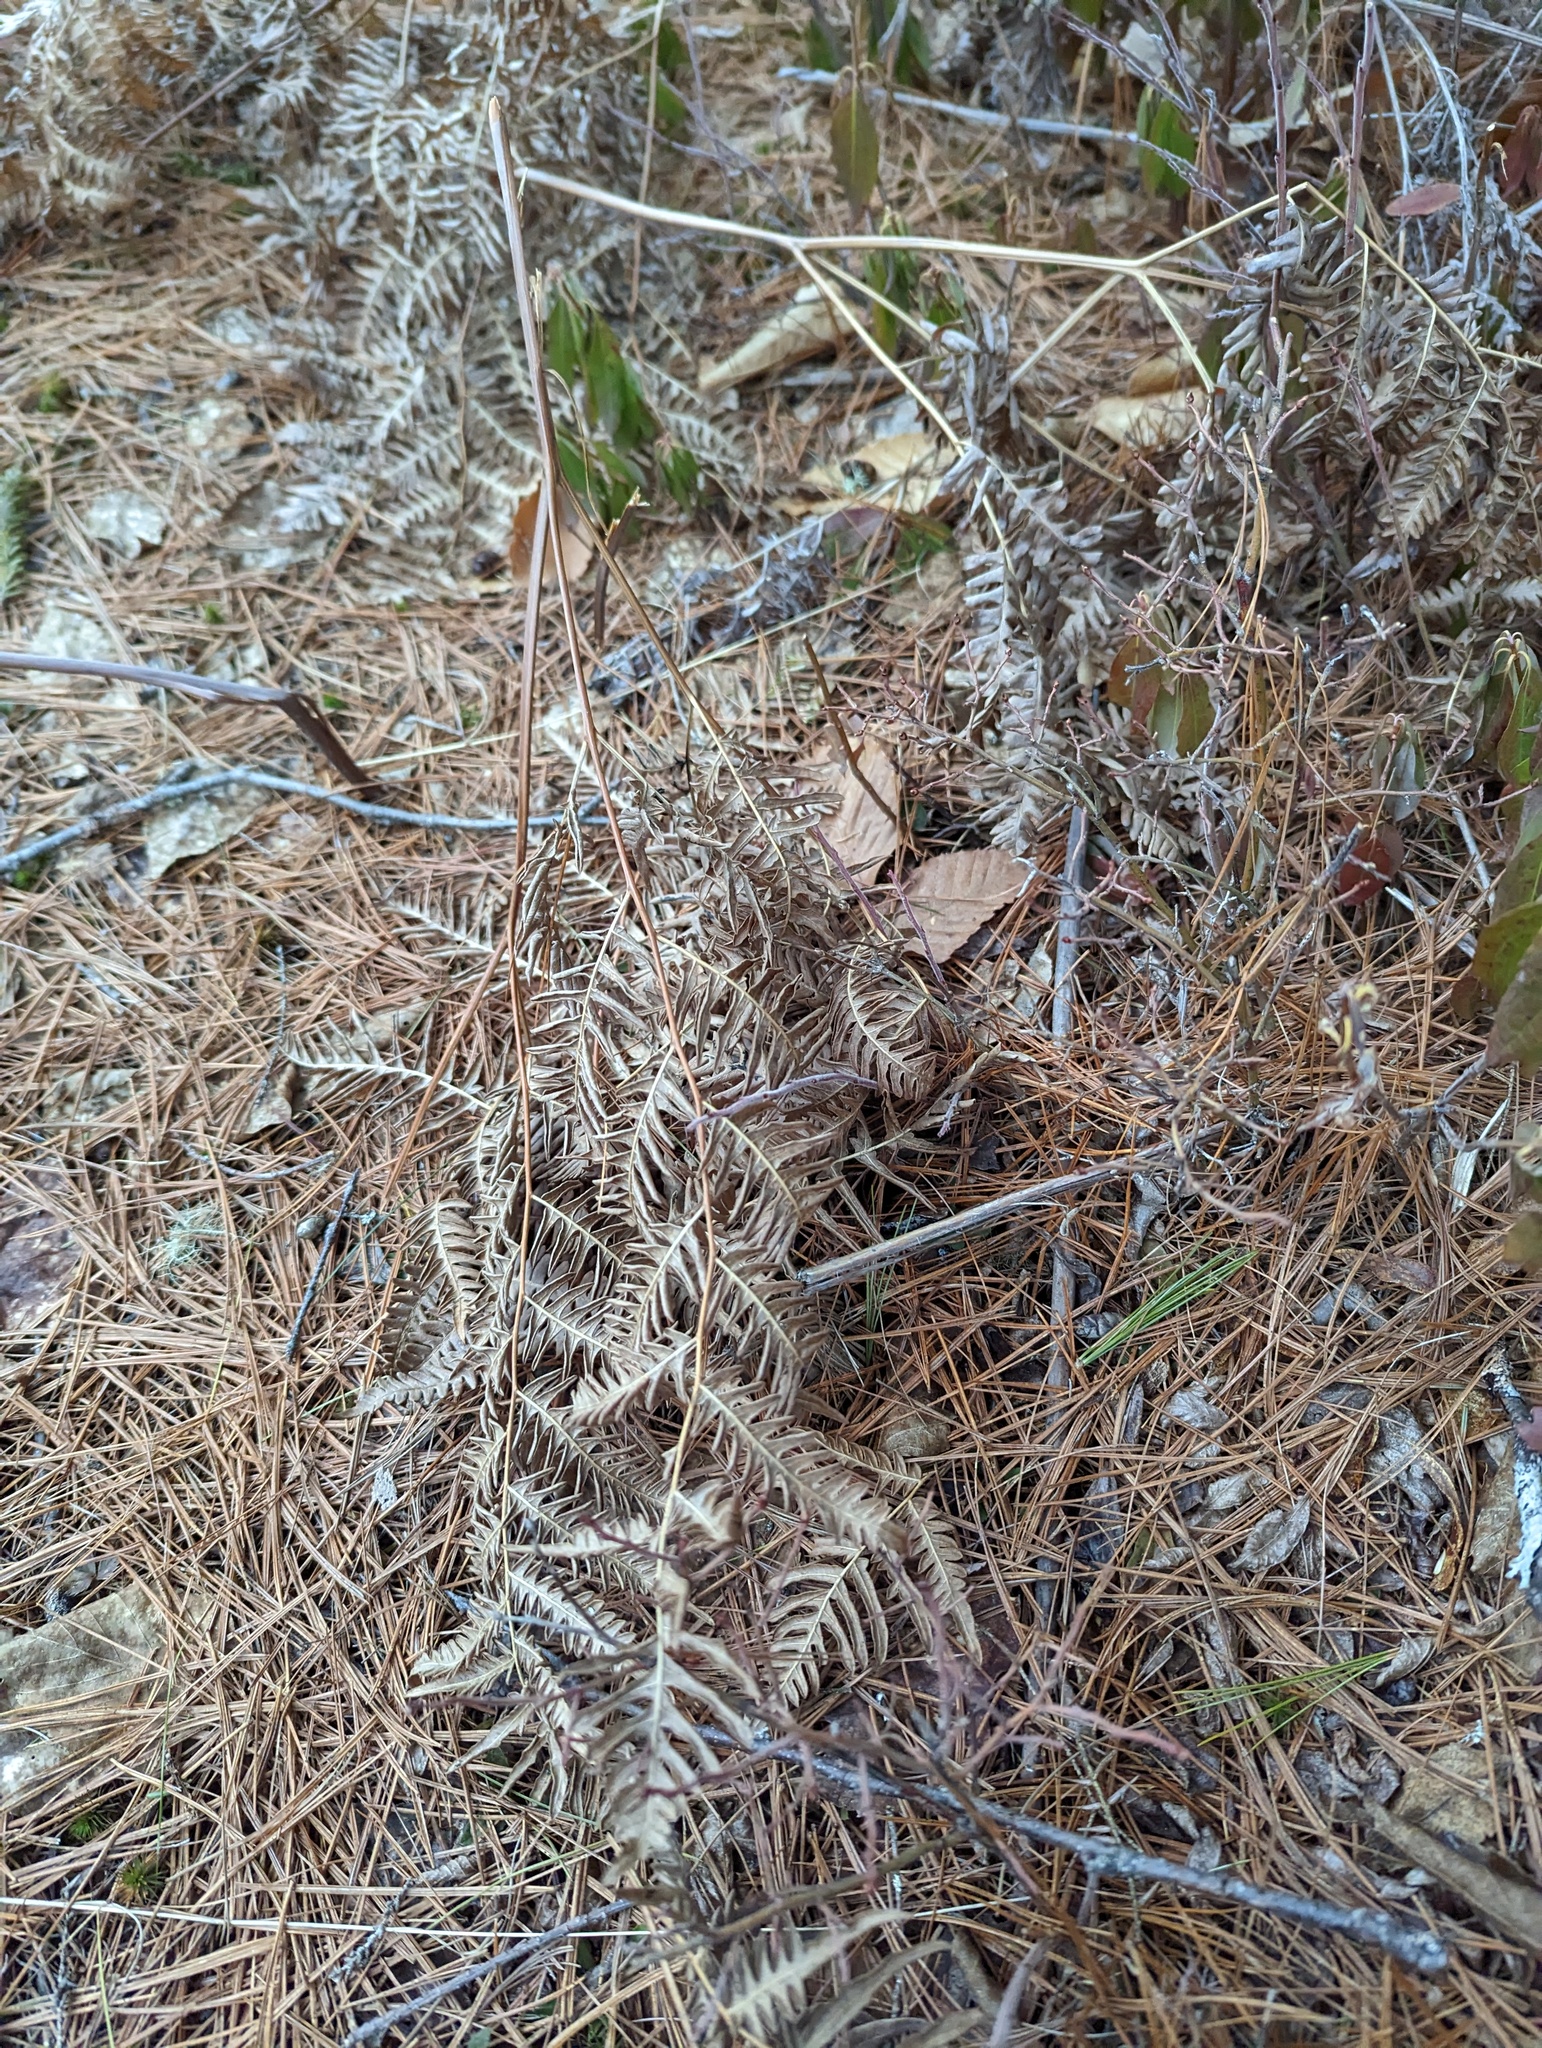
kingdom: Plantae
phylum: Tracheophyta
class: Polypodiopsida
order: Polypodiales
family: Dennstaedtiaceae
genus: Pteridium
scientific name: Pteridium aquilinum
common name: Bracken
